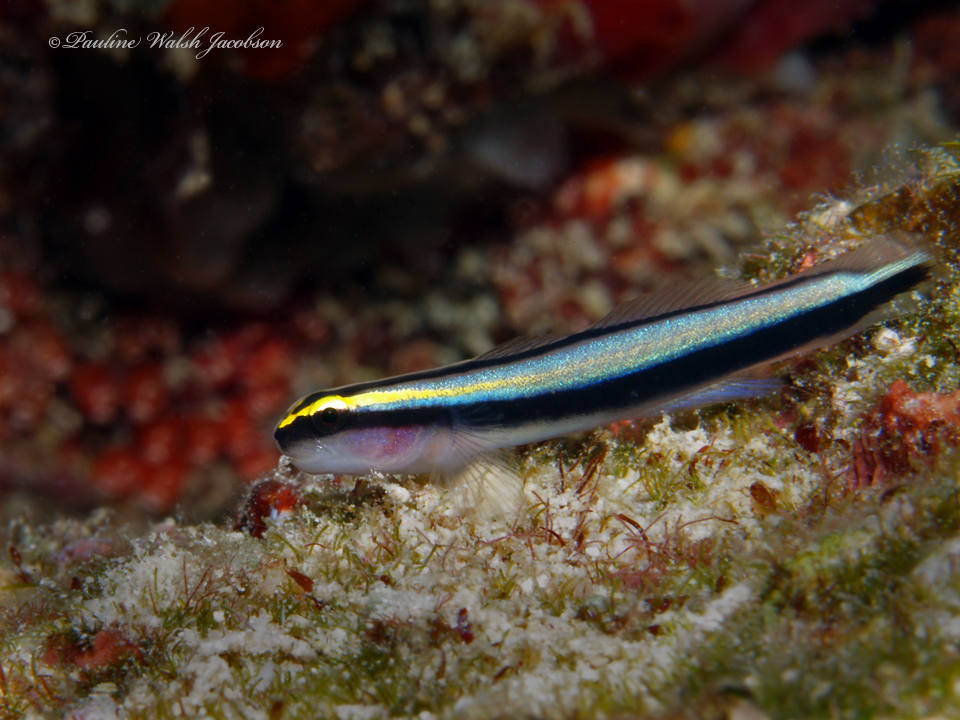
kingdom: Animalia
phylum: Chordata
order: Perciformes
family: Gobiidae
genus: Elacatinus
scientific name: Elacatinus evelynae
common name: Sharknose goby
